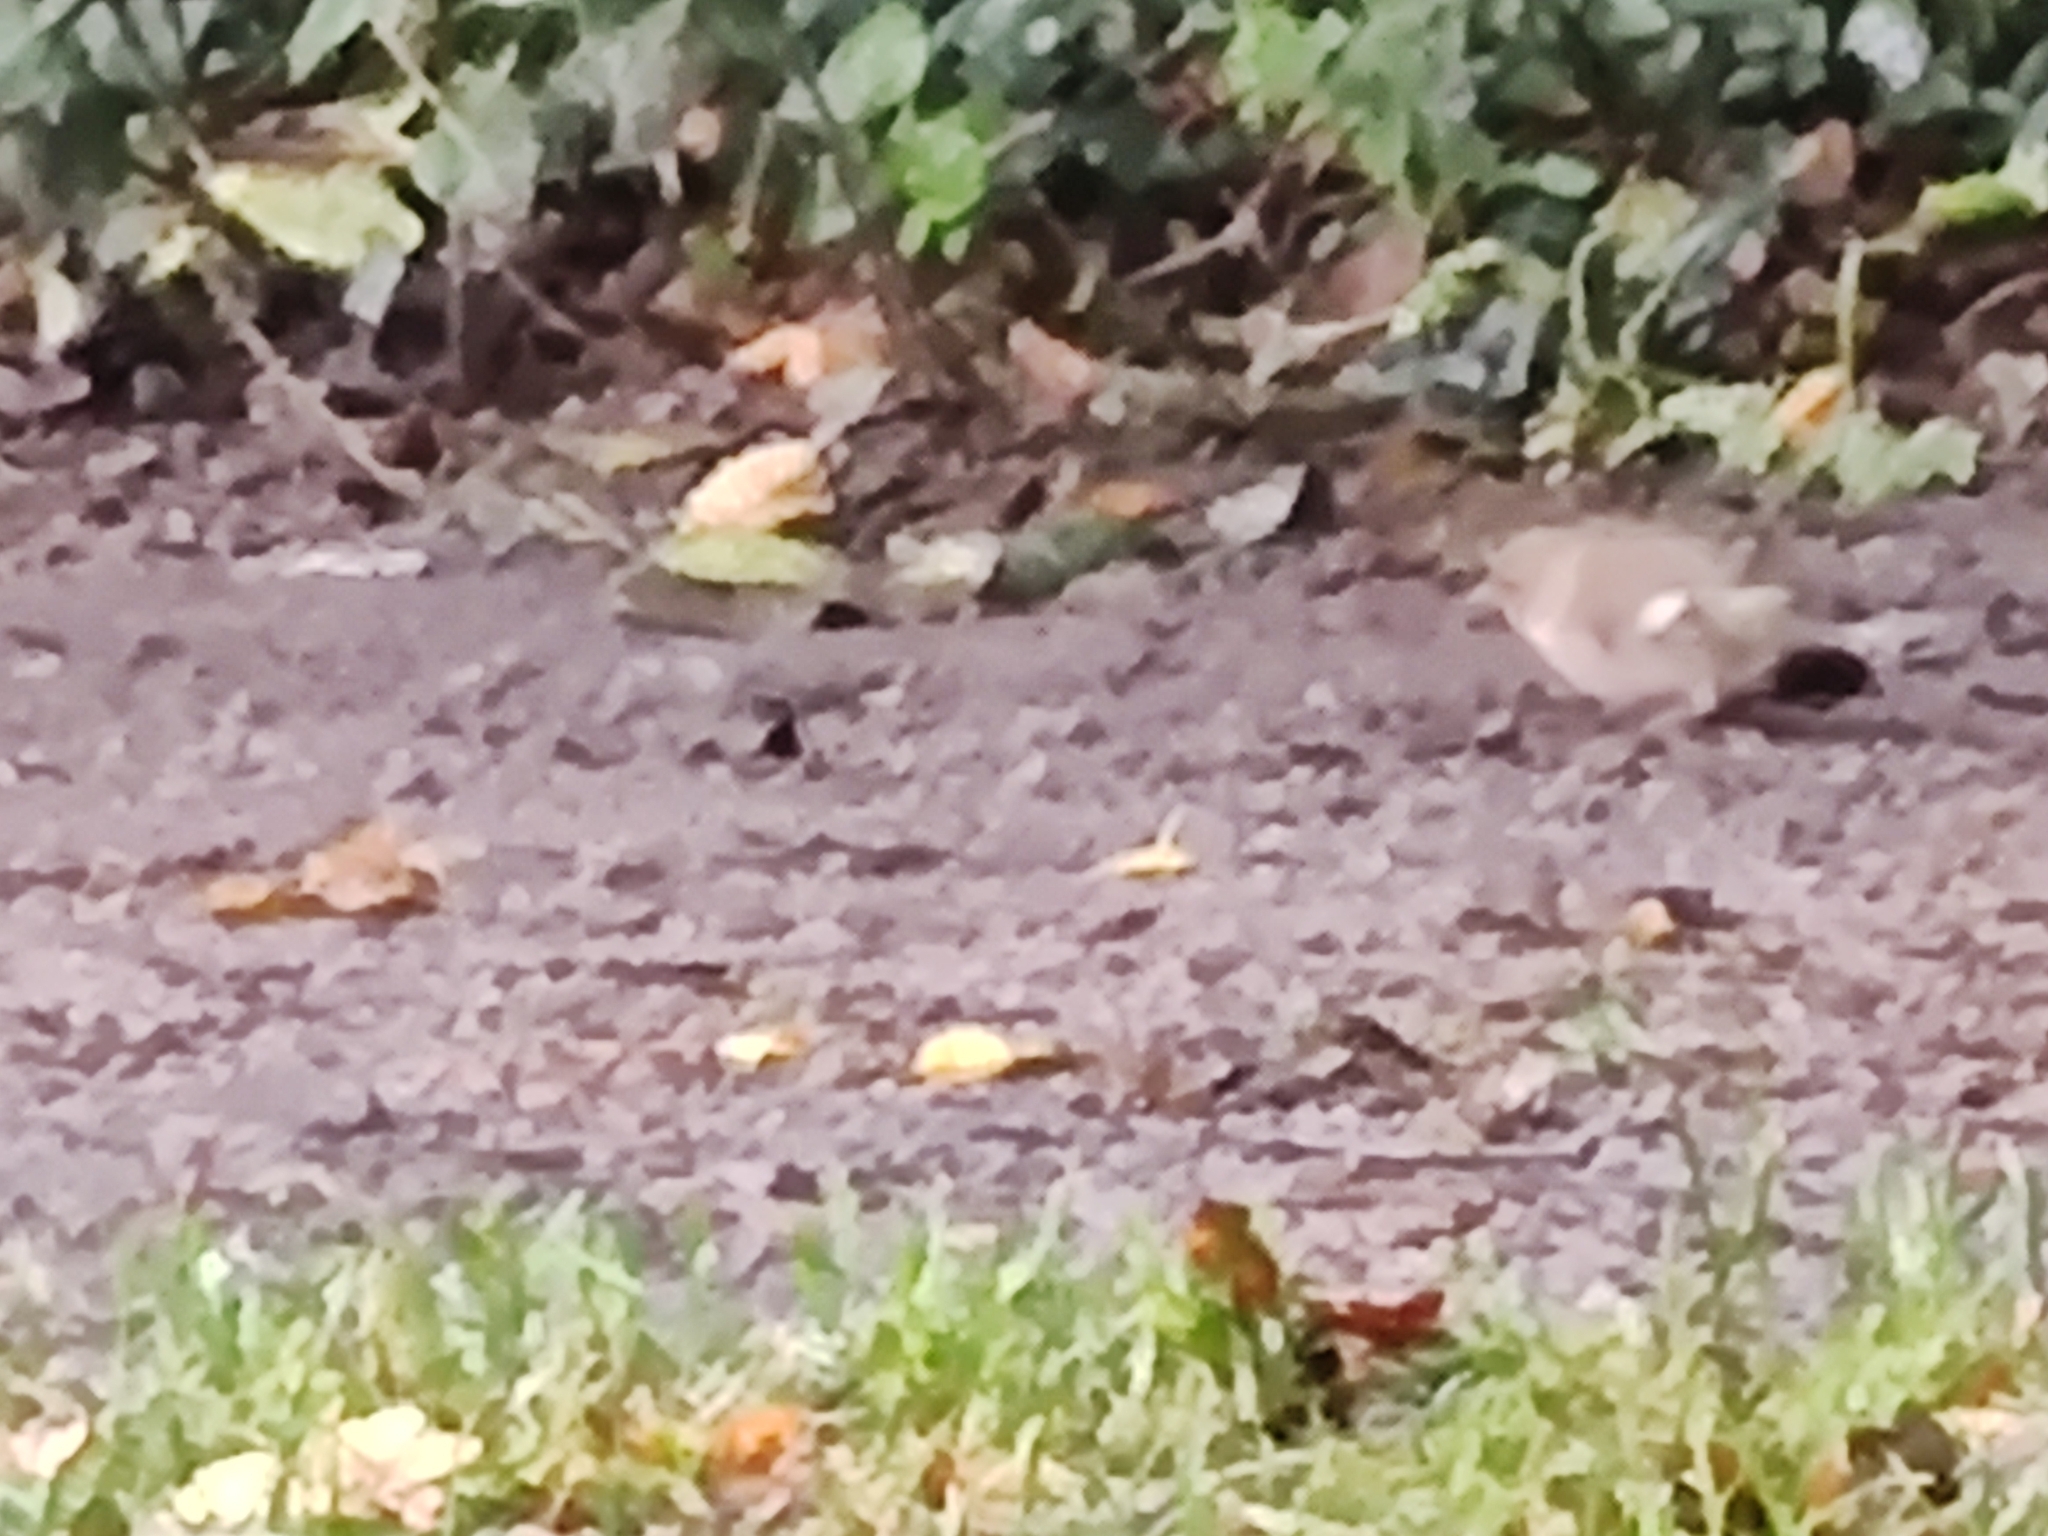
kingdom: Animalia
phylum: Chordata
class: Aves
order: Passeriformes
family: Fringillidae
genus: Fringilla
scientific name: Fringilla coelebs
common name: Common chaffinch
